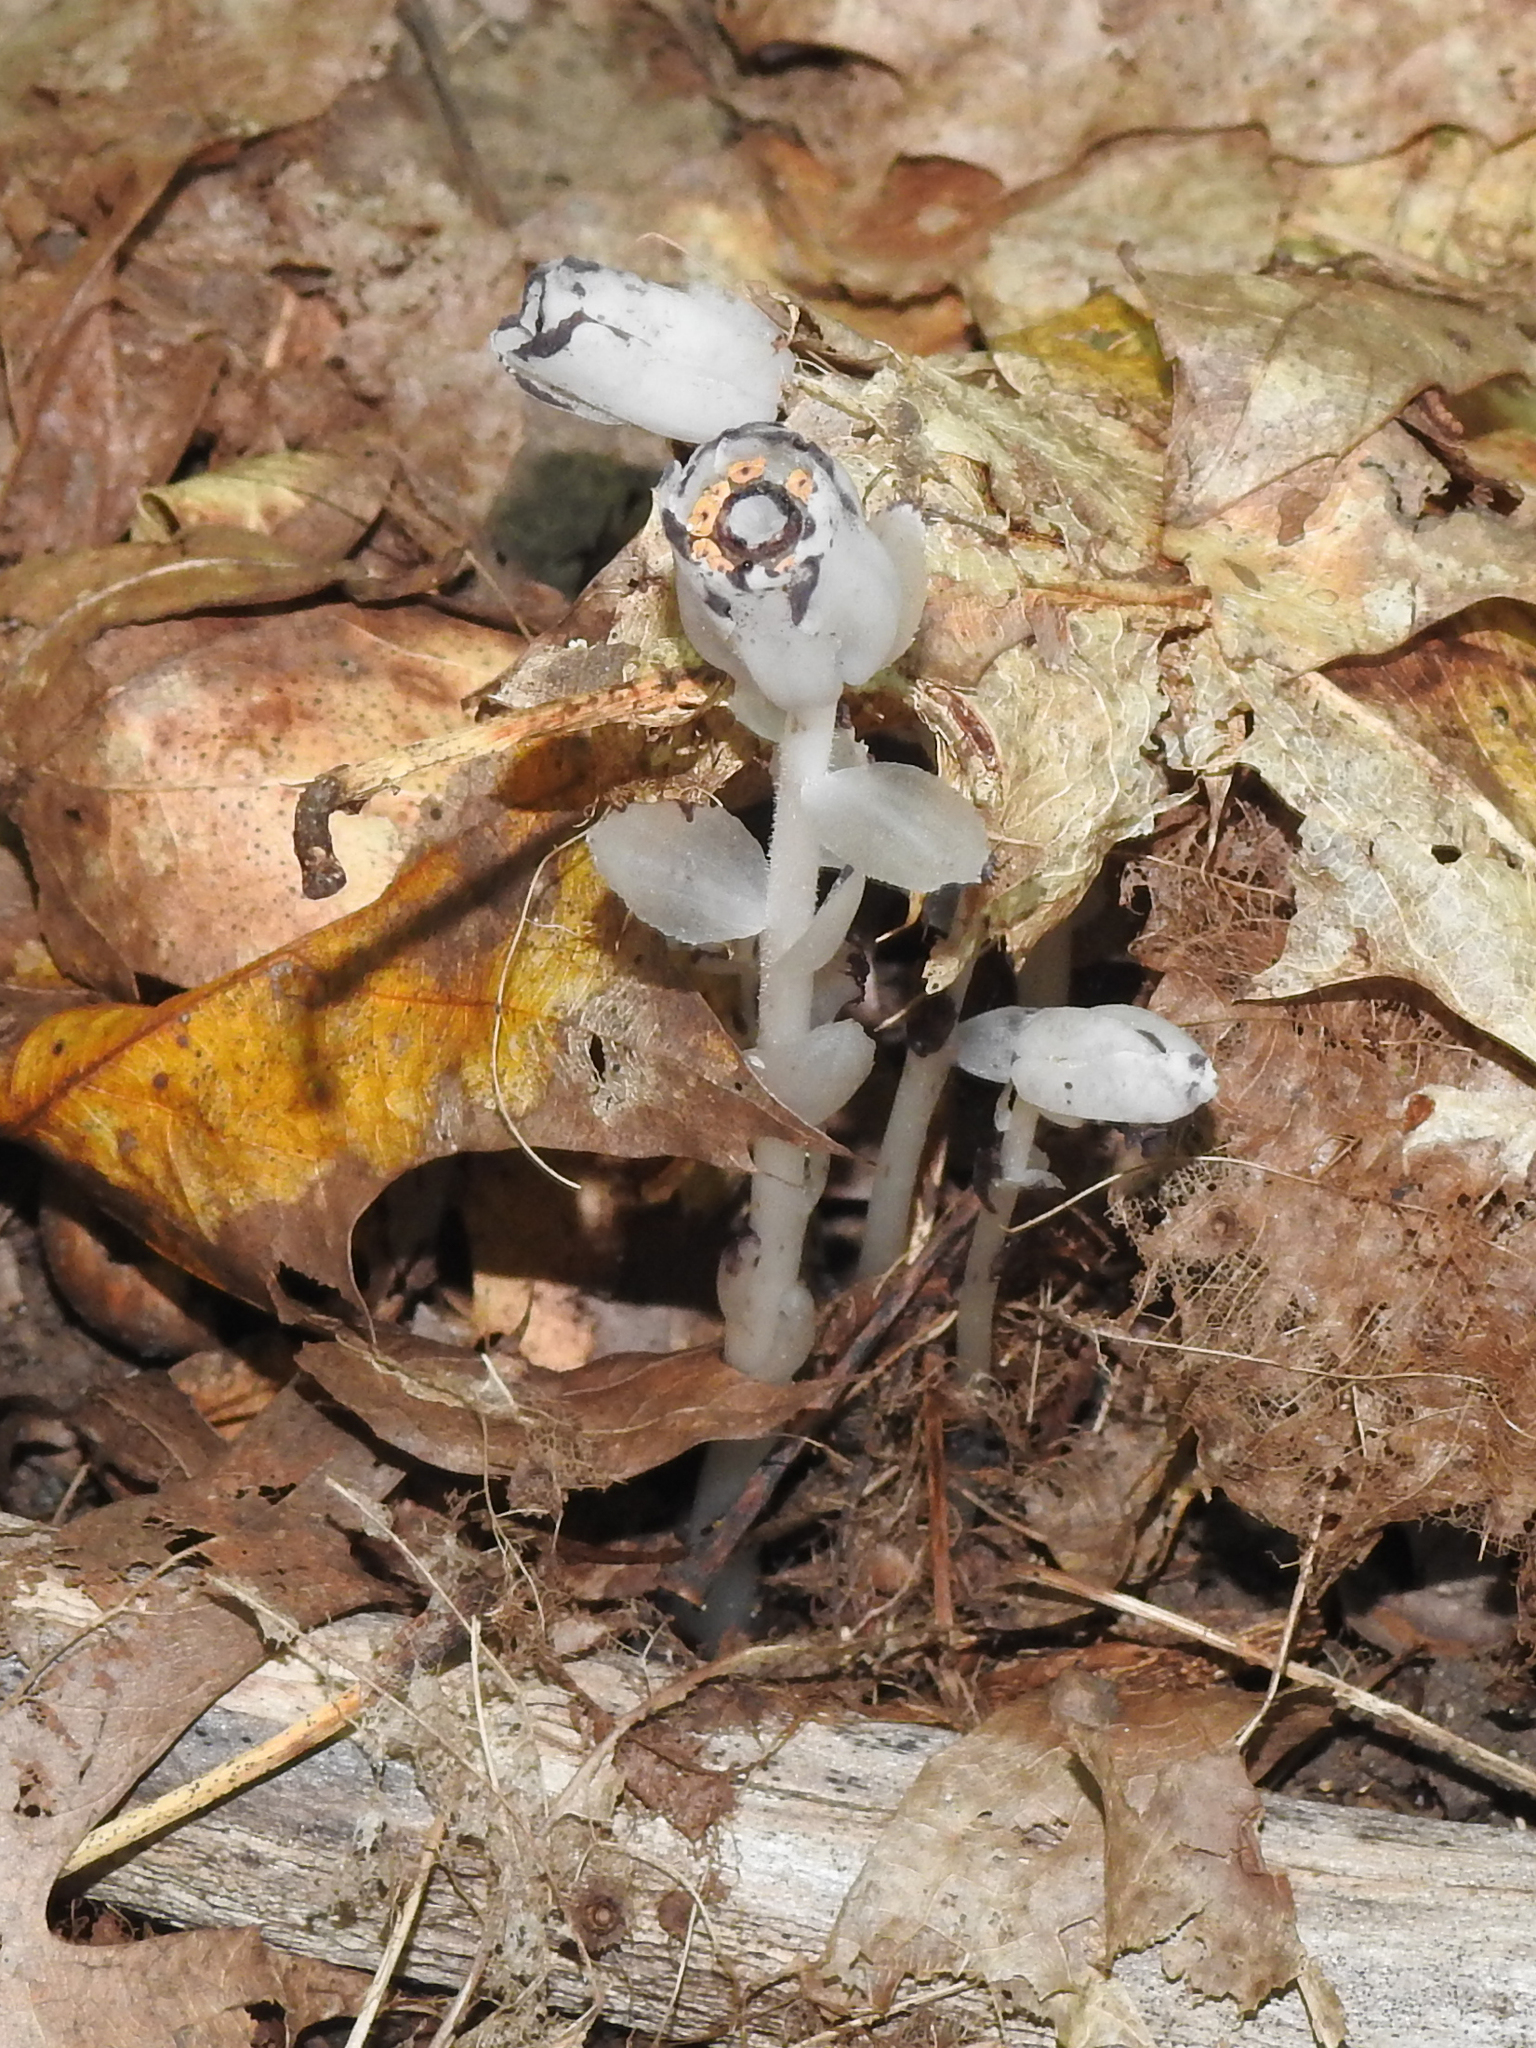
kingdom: Plantae
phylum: Tracheophyta
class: Magnoliopsida
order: Ericales
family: Ericaceae
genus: Monotropa
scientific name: Monotropa uniflora
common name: Convulsion root
